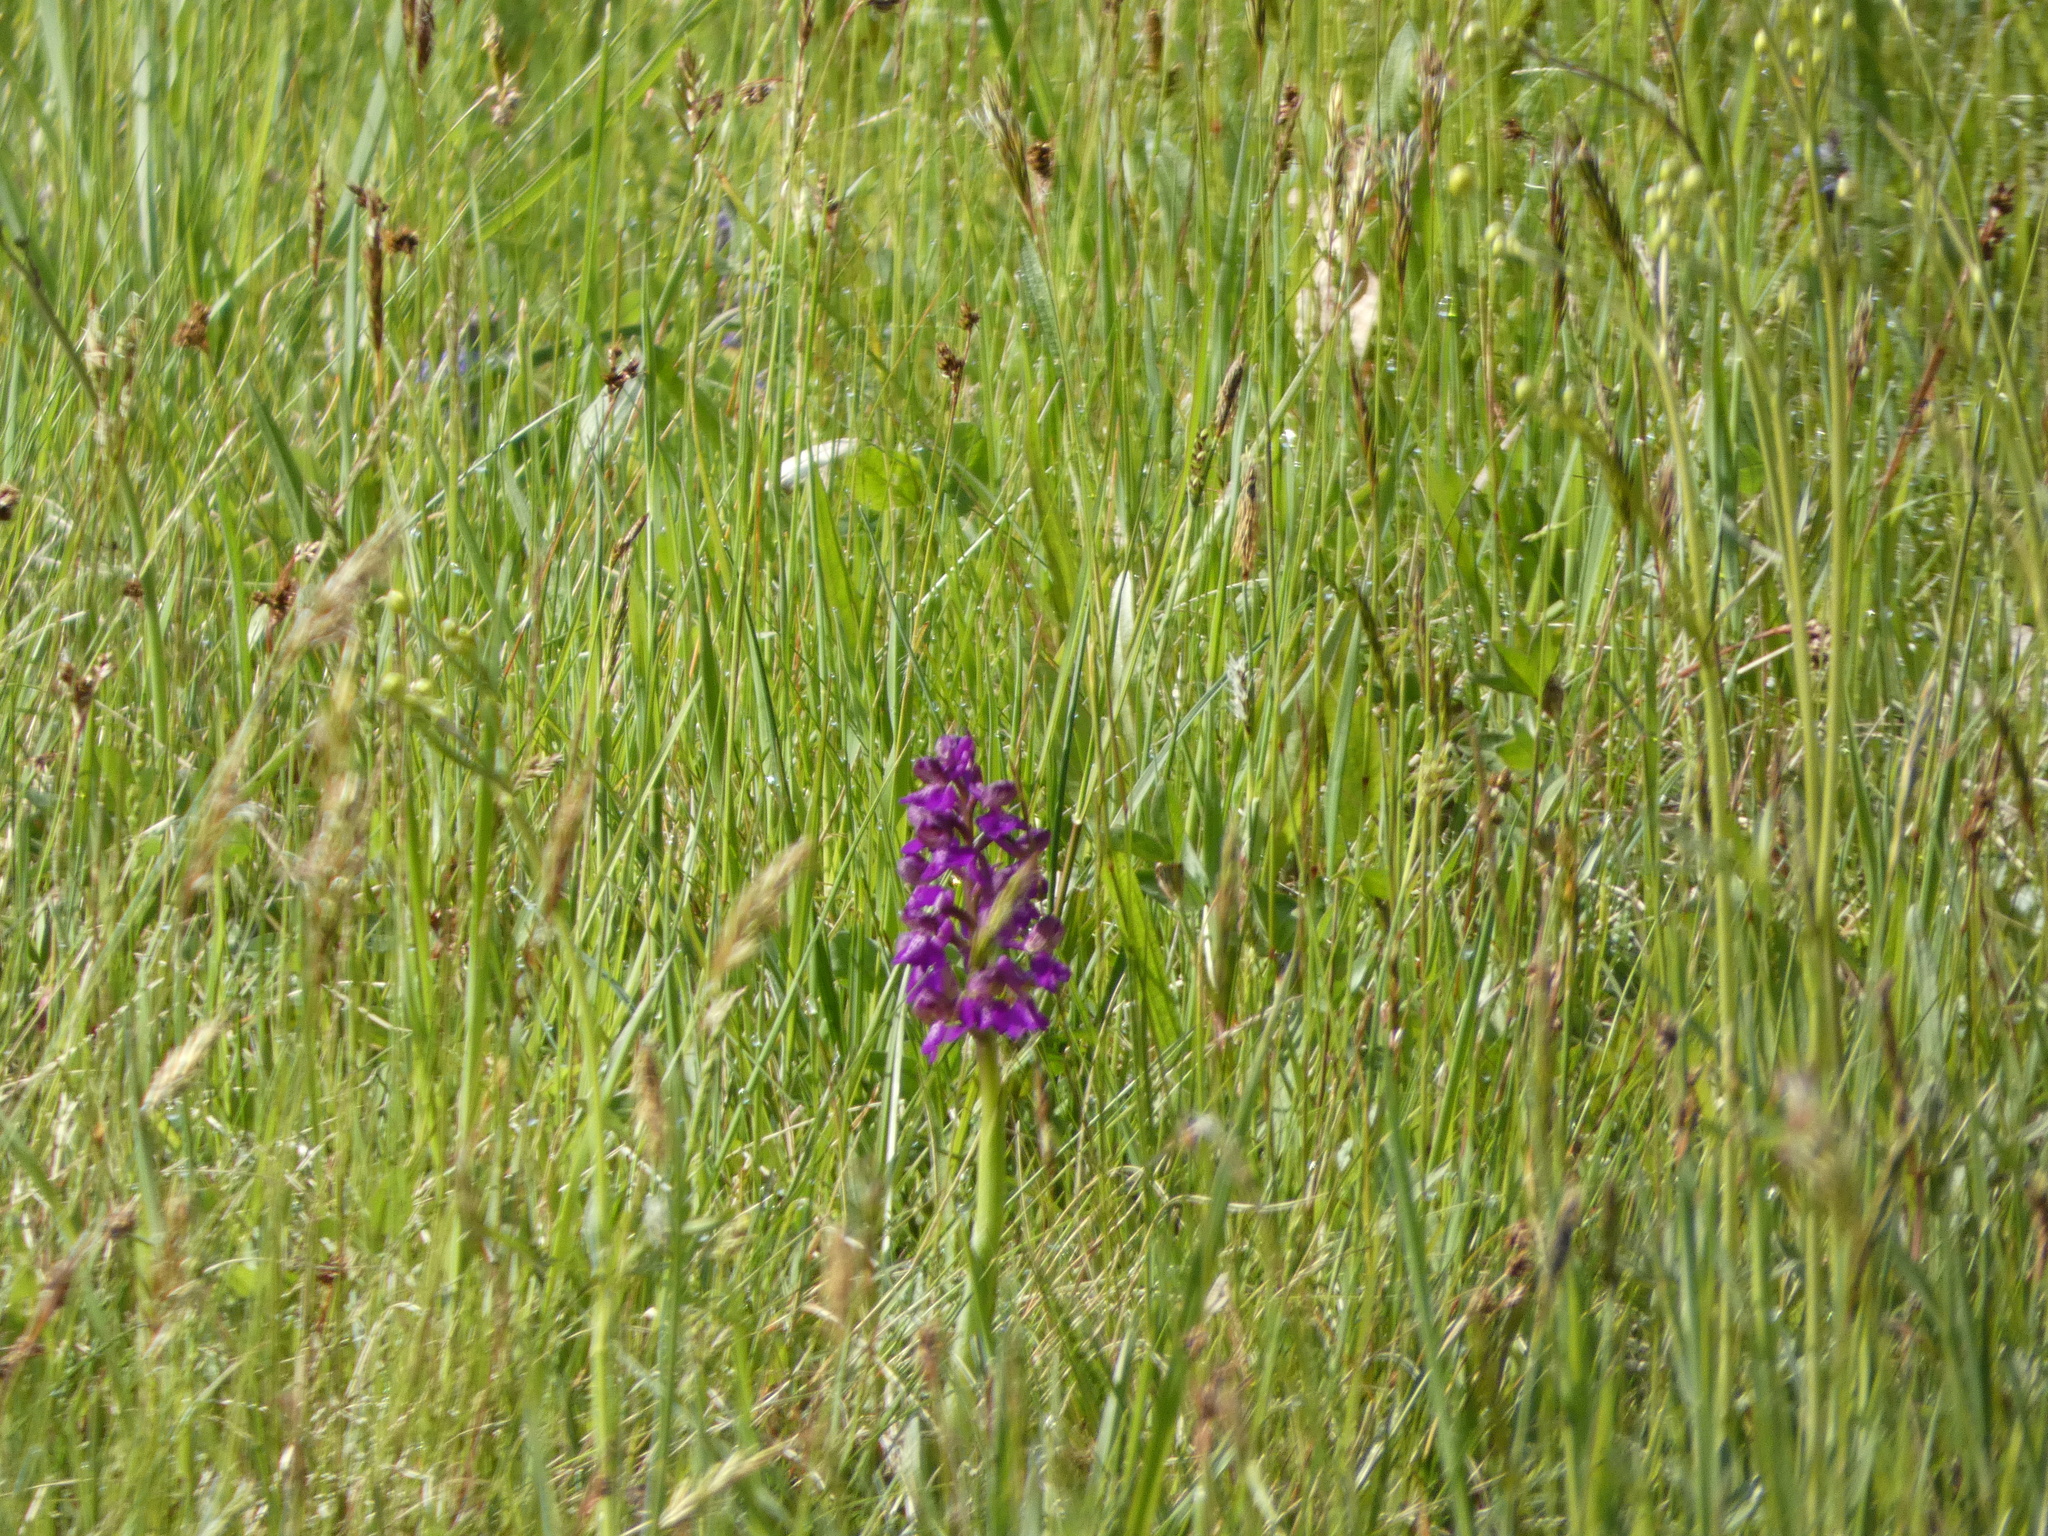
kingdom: Plantae
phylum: Tracheophyta
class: Liliopsida
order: Asparagales
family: Orchidaceae
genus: Anacamptis
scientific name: Anacamptis morio
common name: Green-winged orchid
